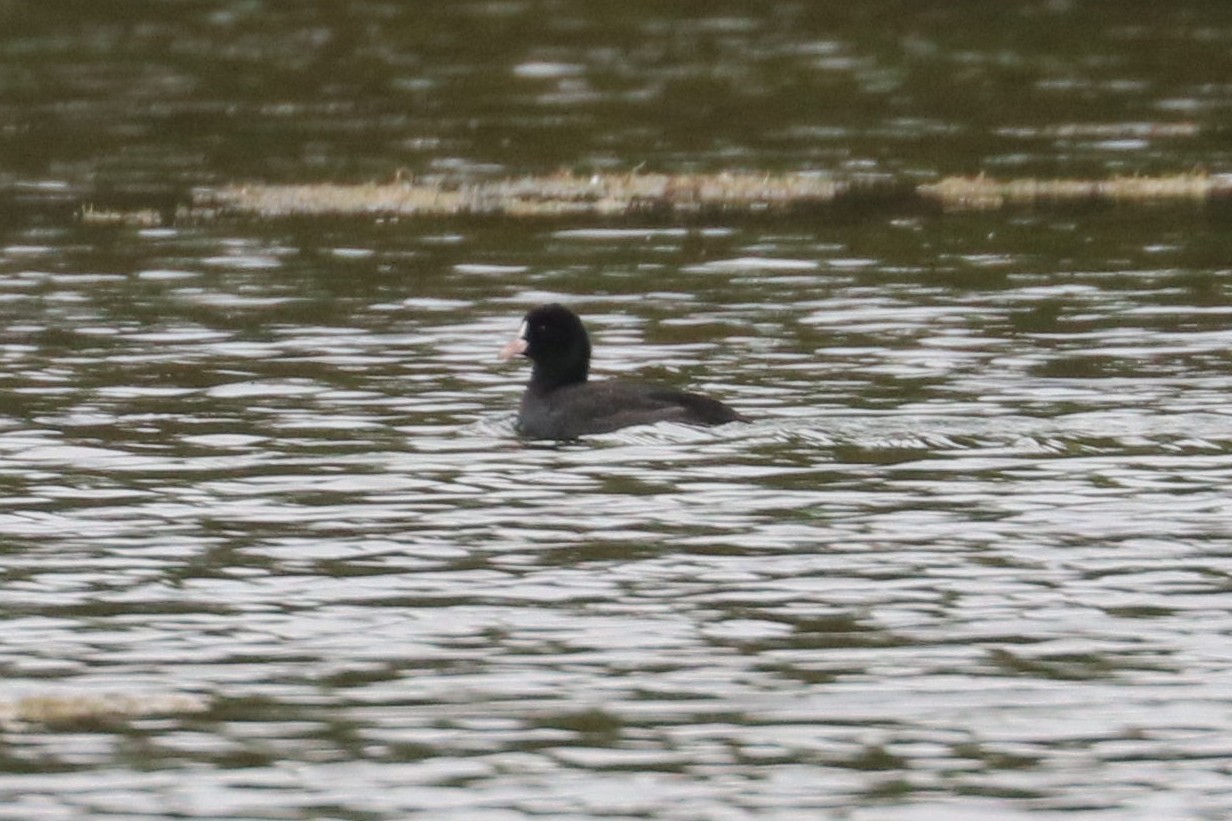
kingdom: Animalia
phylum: Chordata
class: Aves
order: Gruiformes
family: Rallidae
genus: Fulica
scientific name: Fulica atra
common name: Eurasian coot
